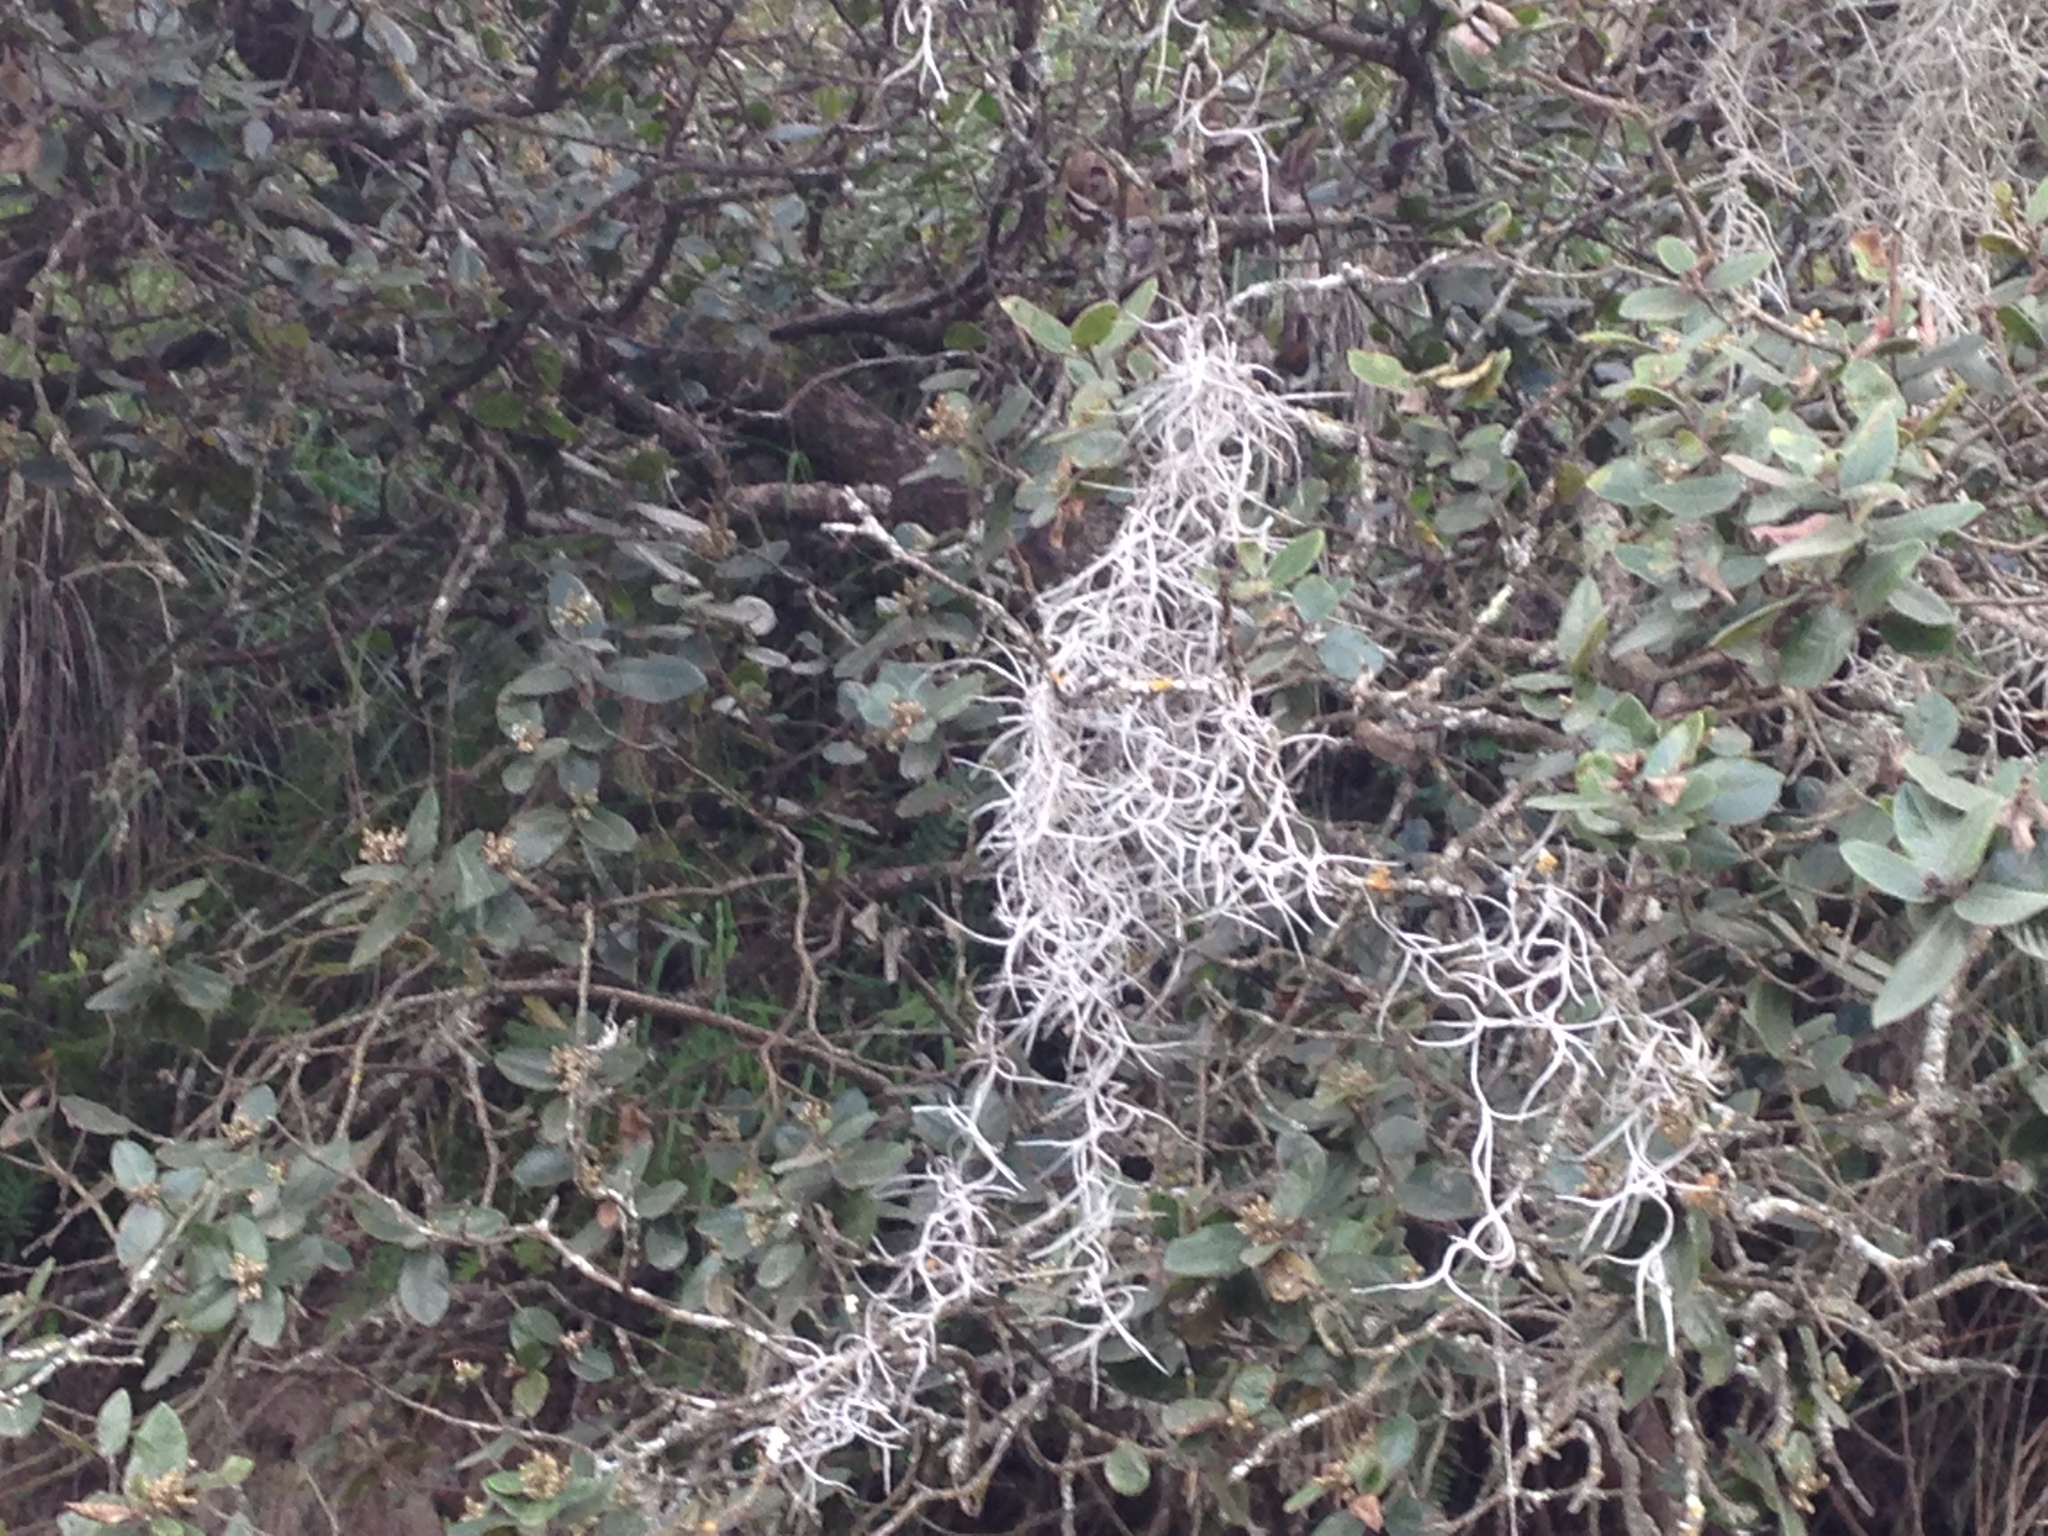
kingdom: Plantae
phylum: Tracheophyta
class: Liliopsida
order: Poales
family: Bromeliaceae
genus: Tillandsia
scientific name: Tillandsia usneoides
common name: Spanish moss
